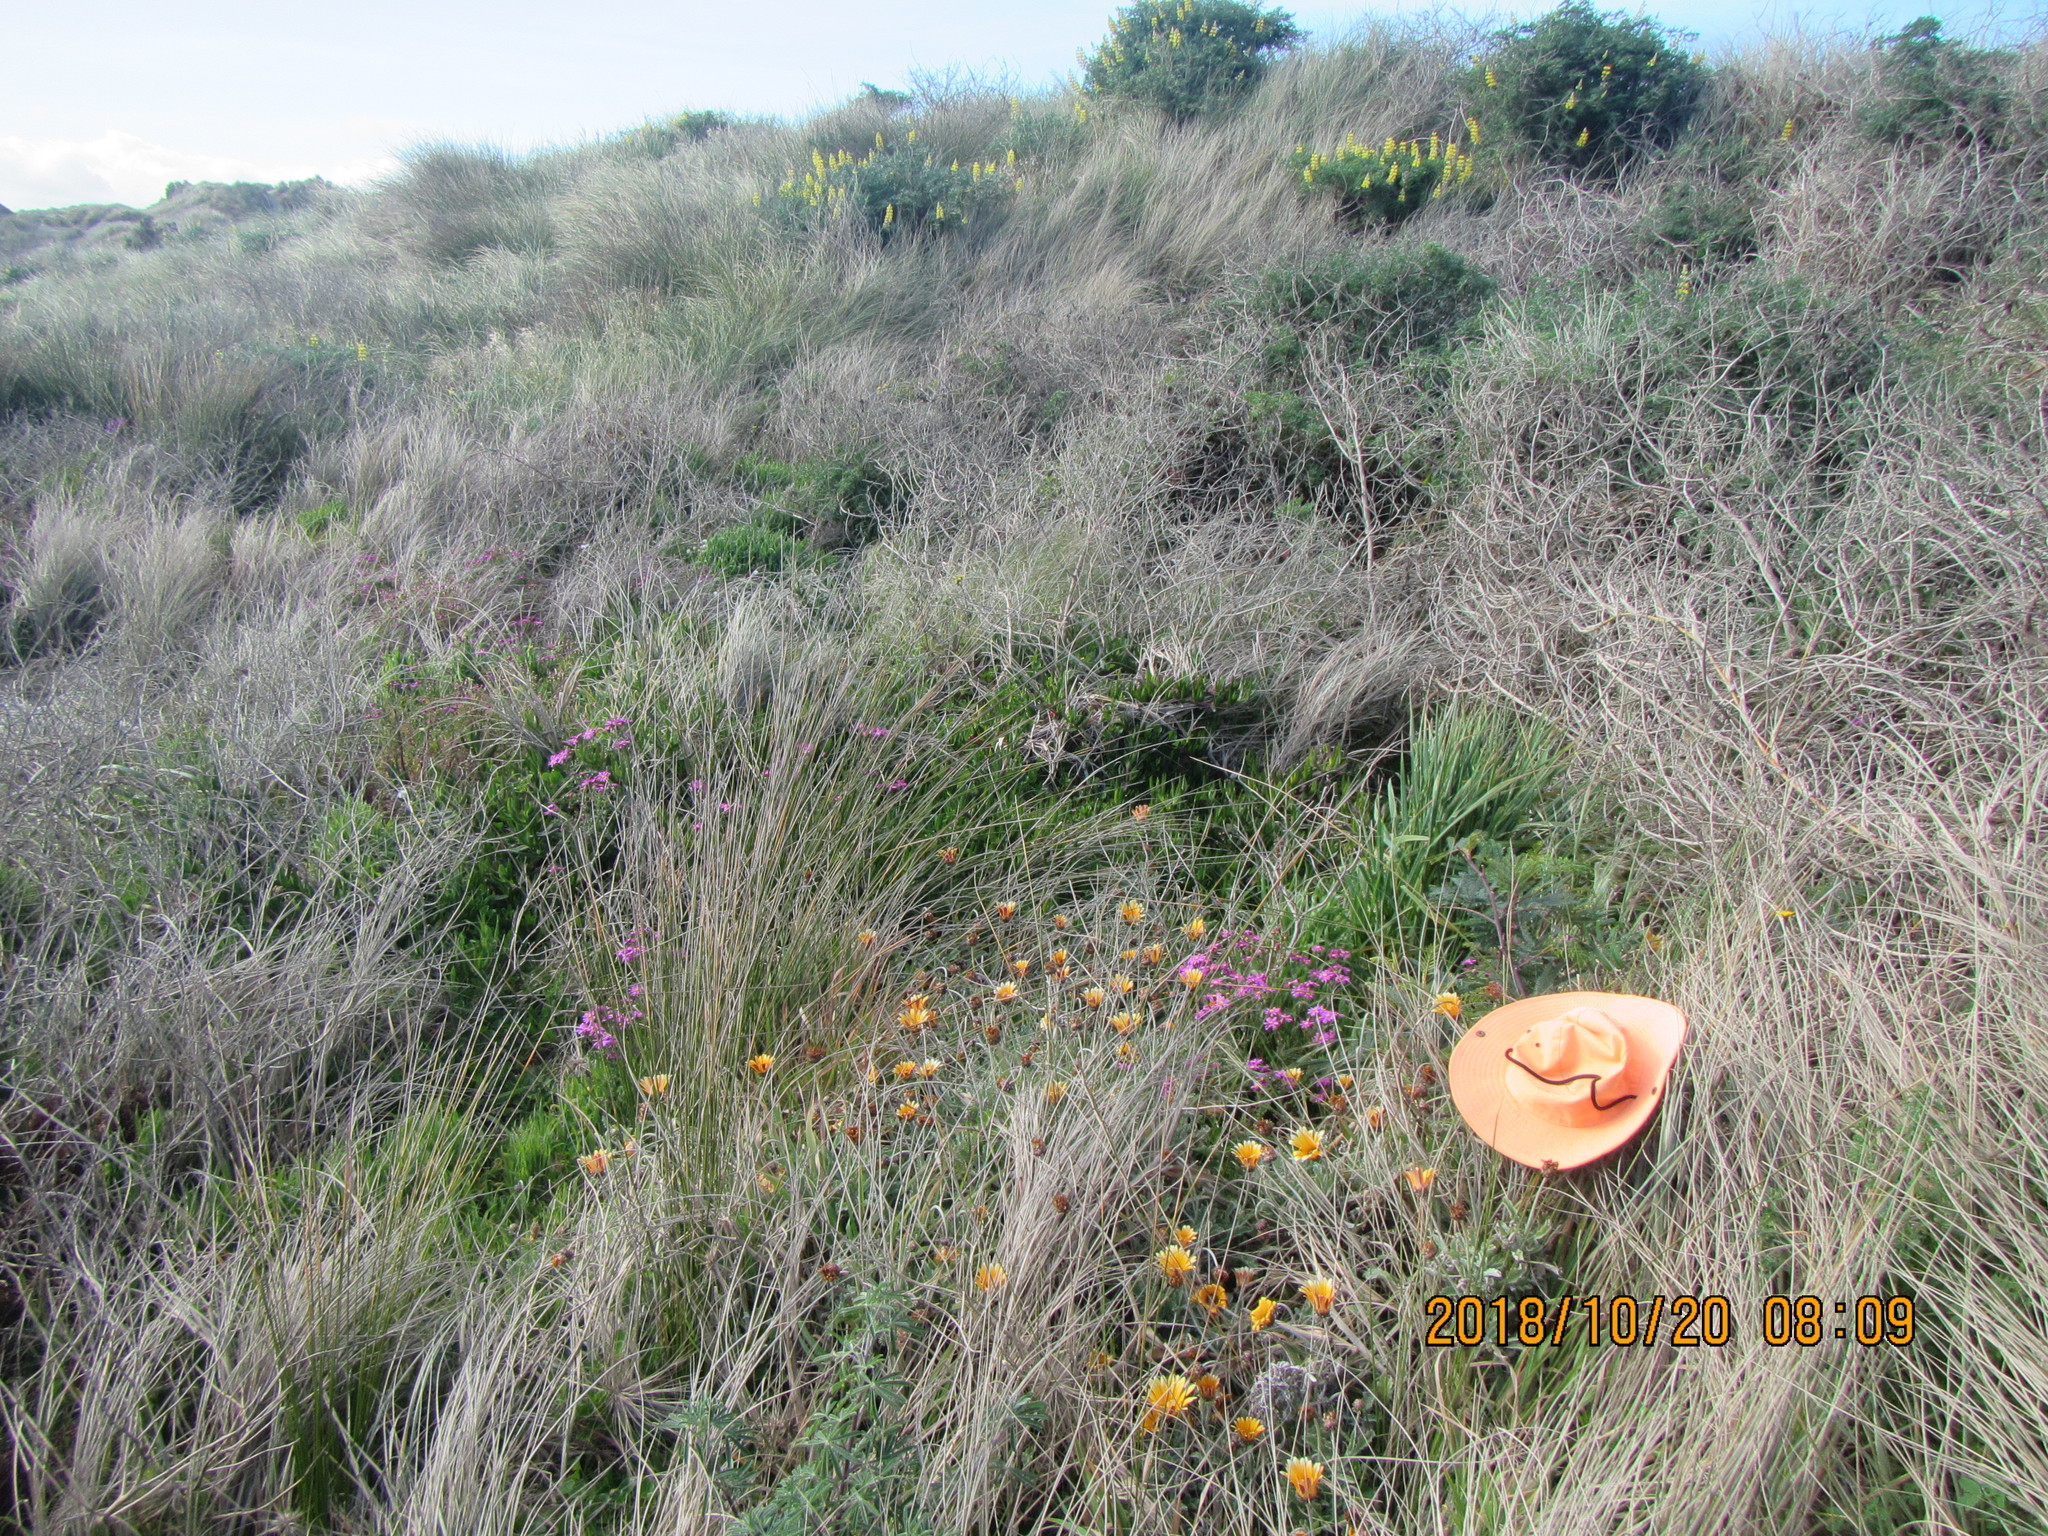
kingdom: Plantae
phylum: Tracheophyta
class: Magnoliopsida
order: Fabales
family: Fabaceae
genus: Paraserianthes
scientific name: Paraserianthes lophantha
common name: Plume albizia
